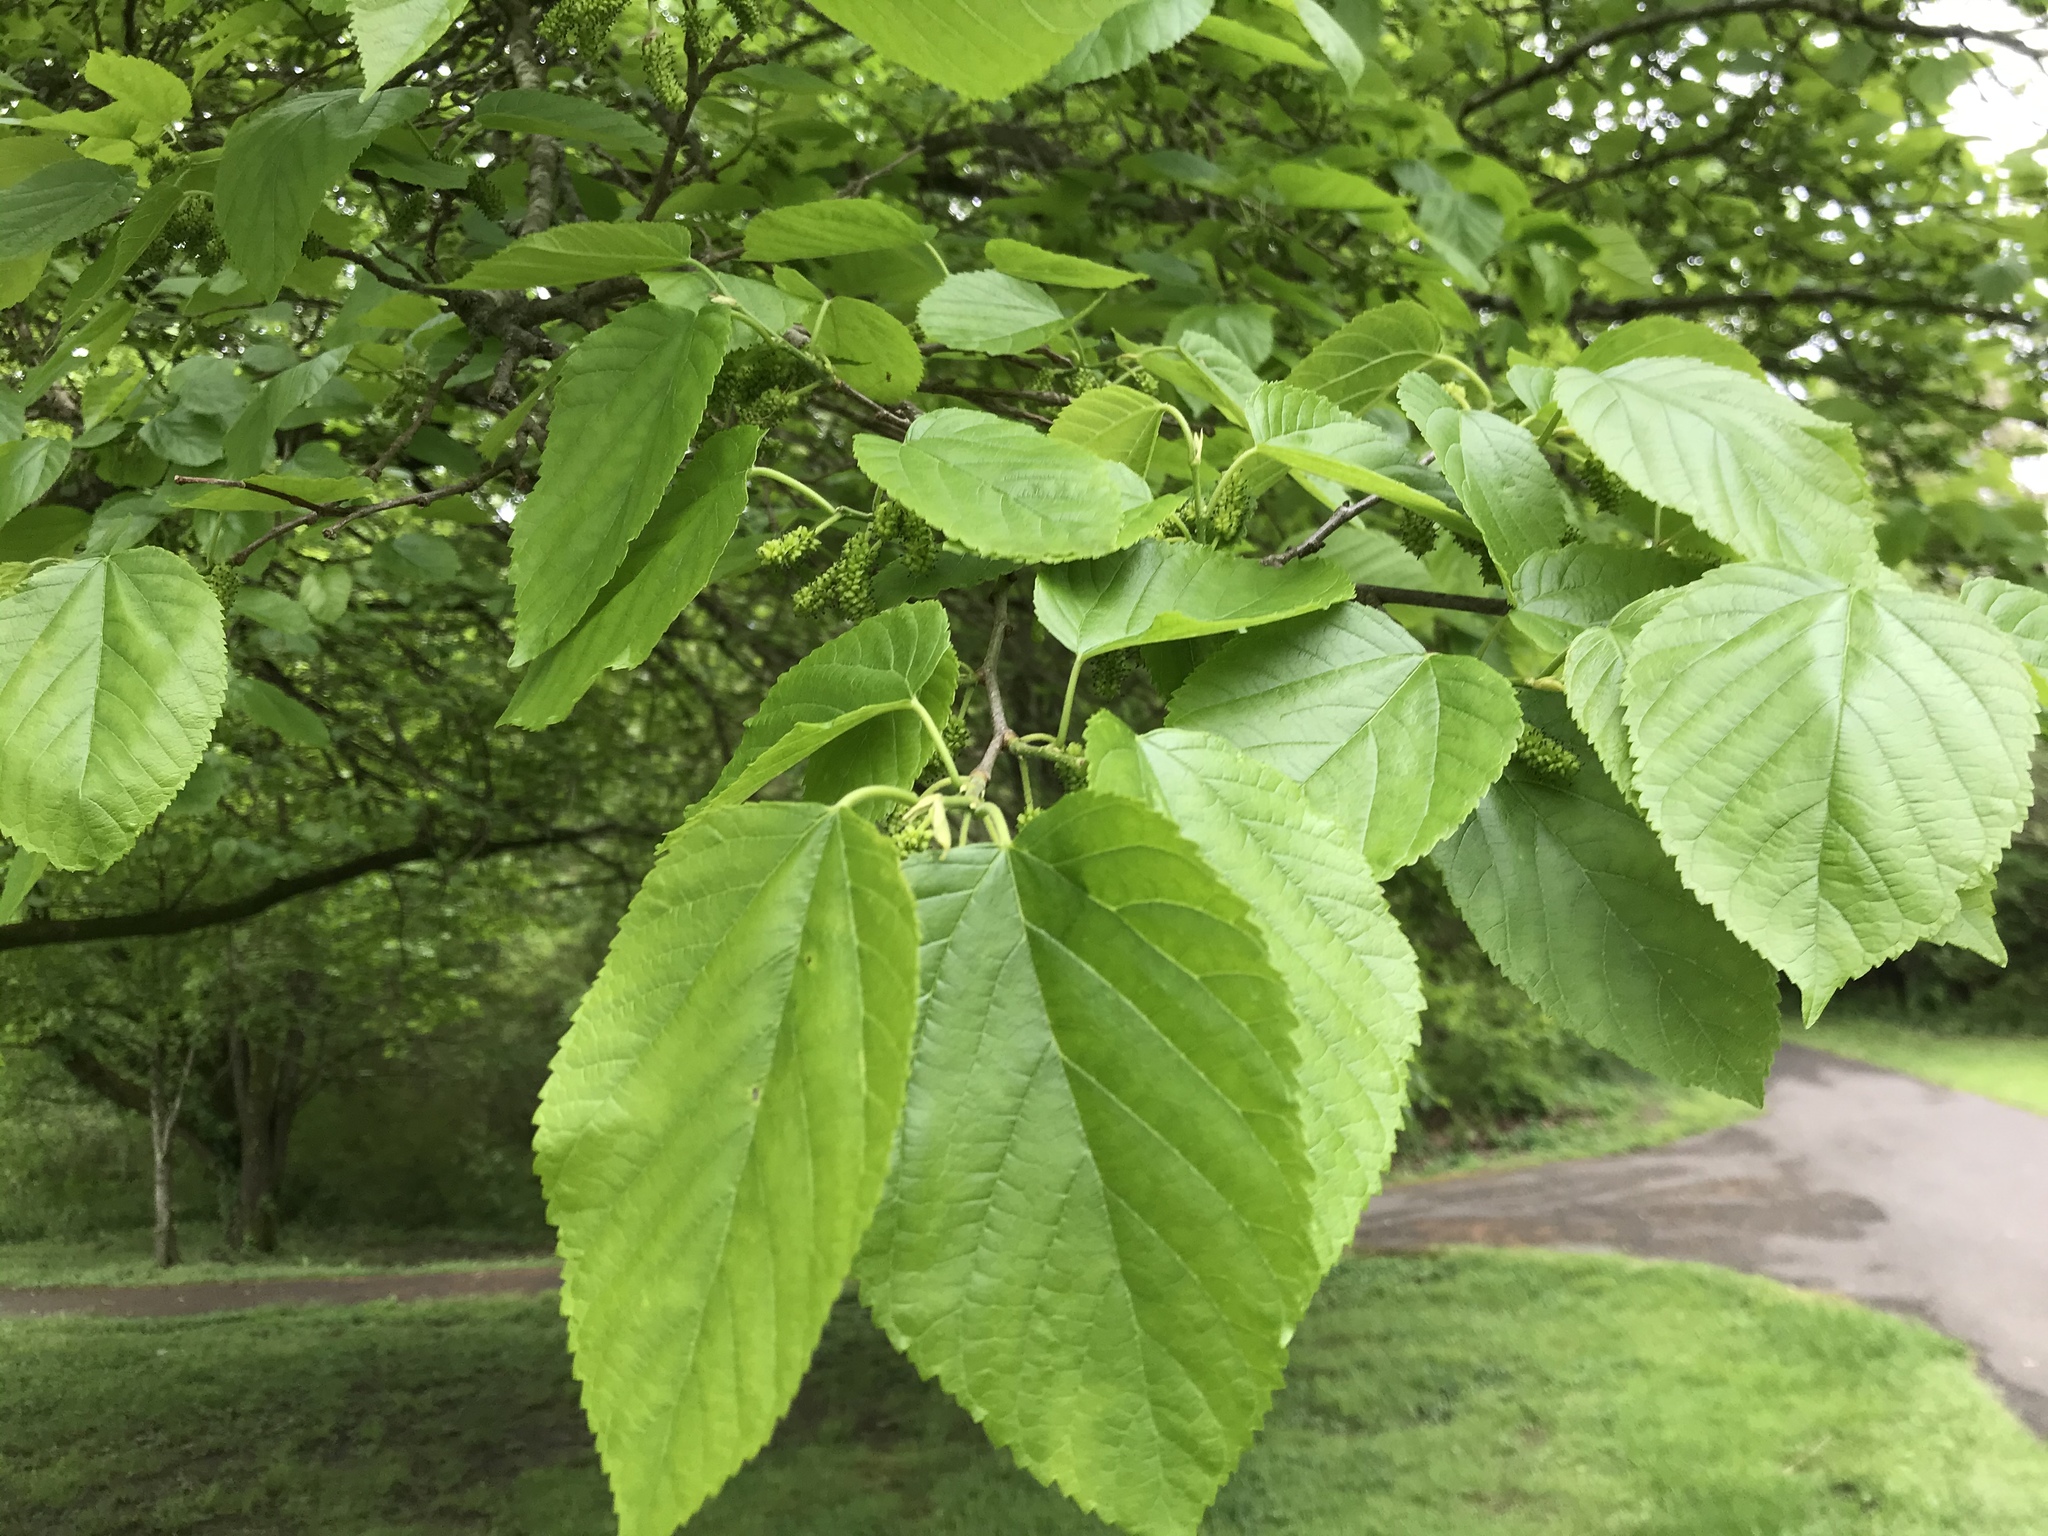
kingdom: Plantae
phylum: Tracheophyta
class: Magnoliopsida
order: Rosales
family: Moraceae
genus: Morus
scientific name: Morus rubra
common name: Red mulberry
